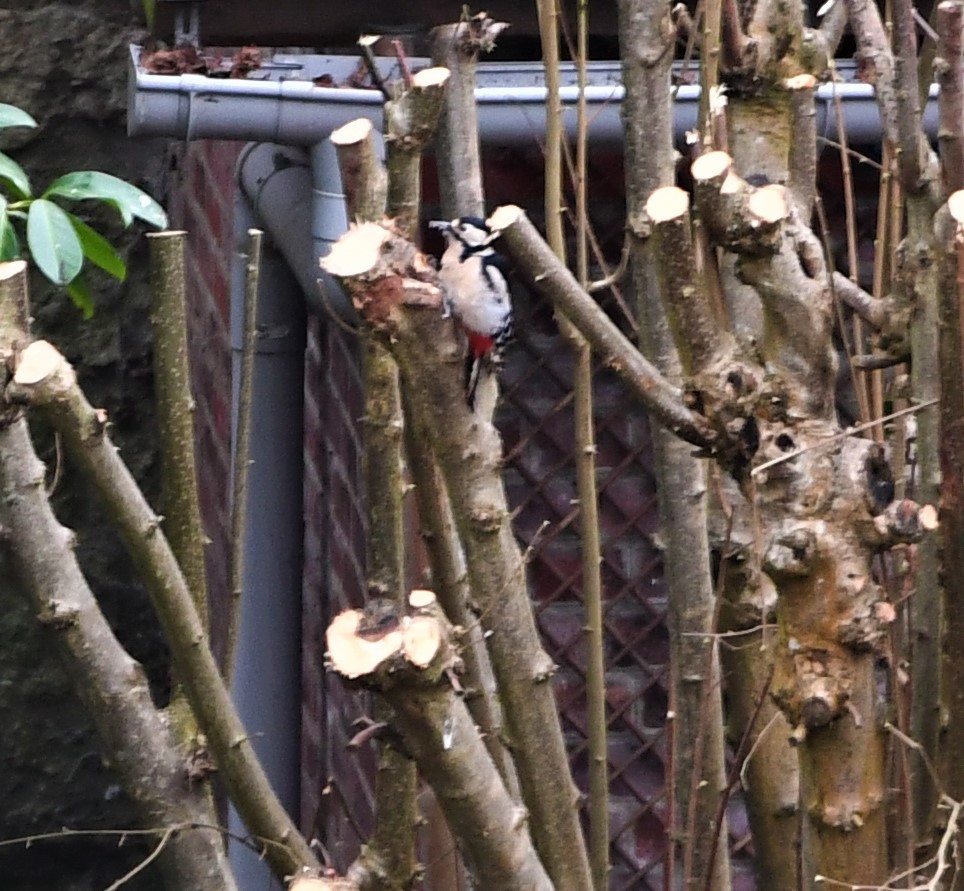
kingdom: Animalia
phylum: Chordata
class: Aves
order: Piciformes
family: Picidae
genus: Dendrocopos
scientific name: Dendrocopos major
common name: Great spotted woodpecker
